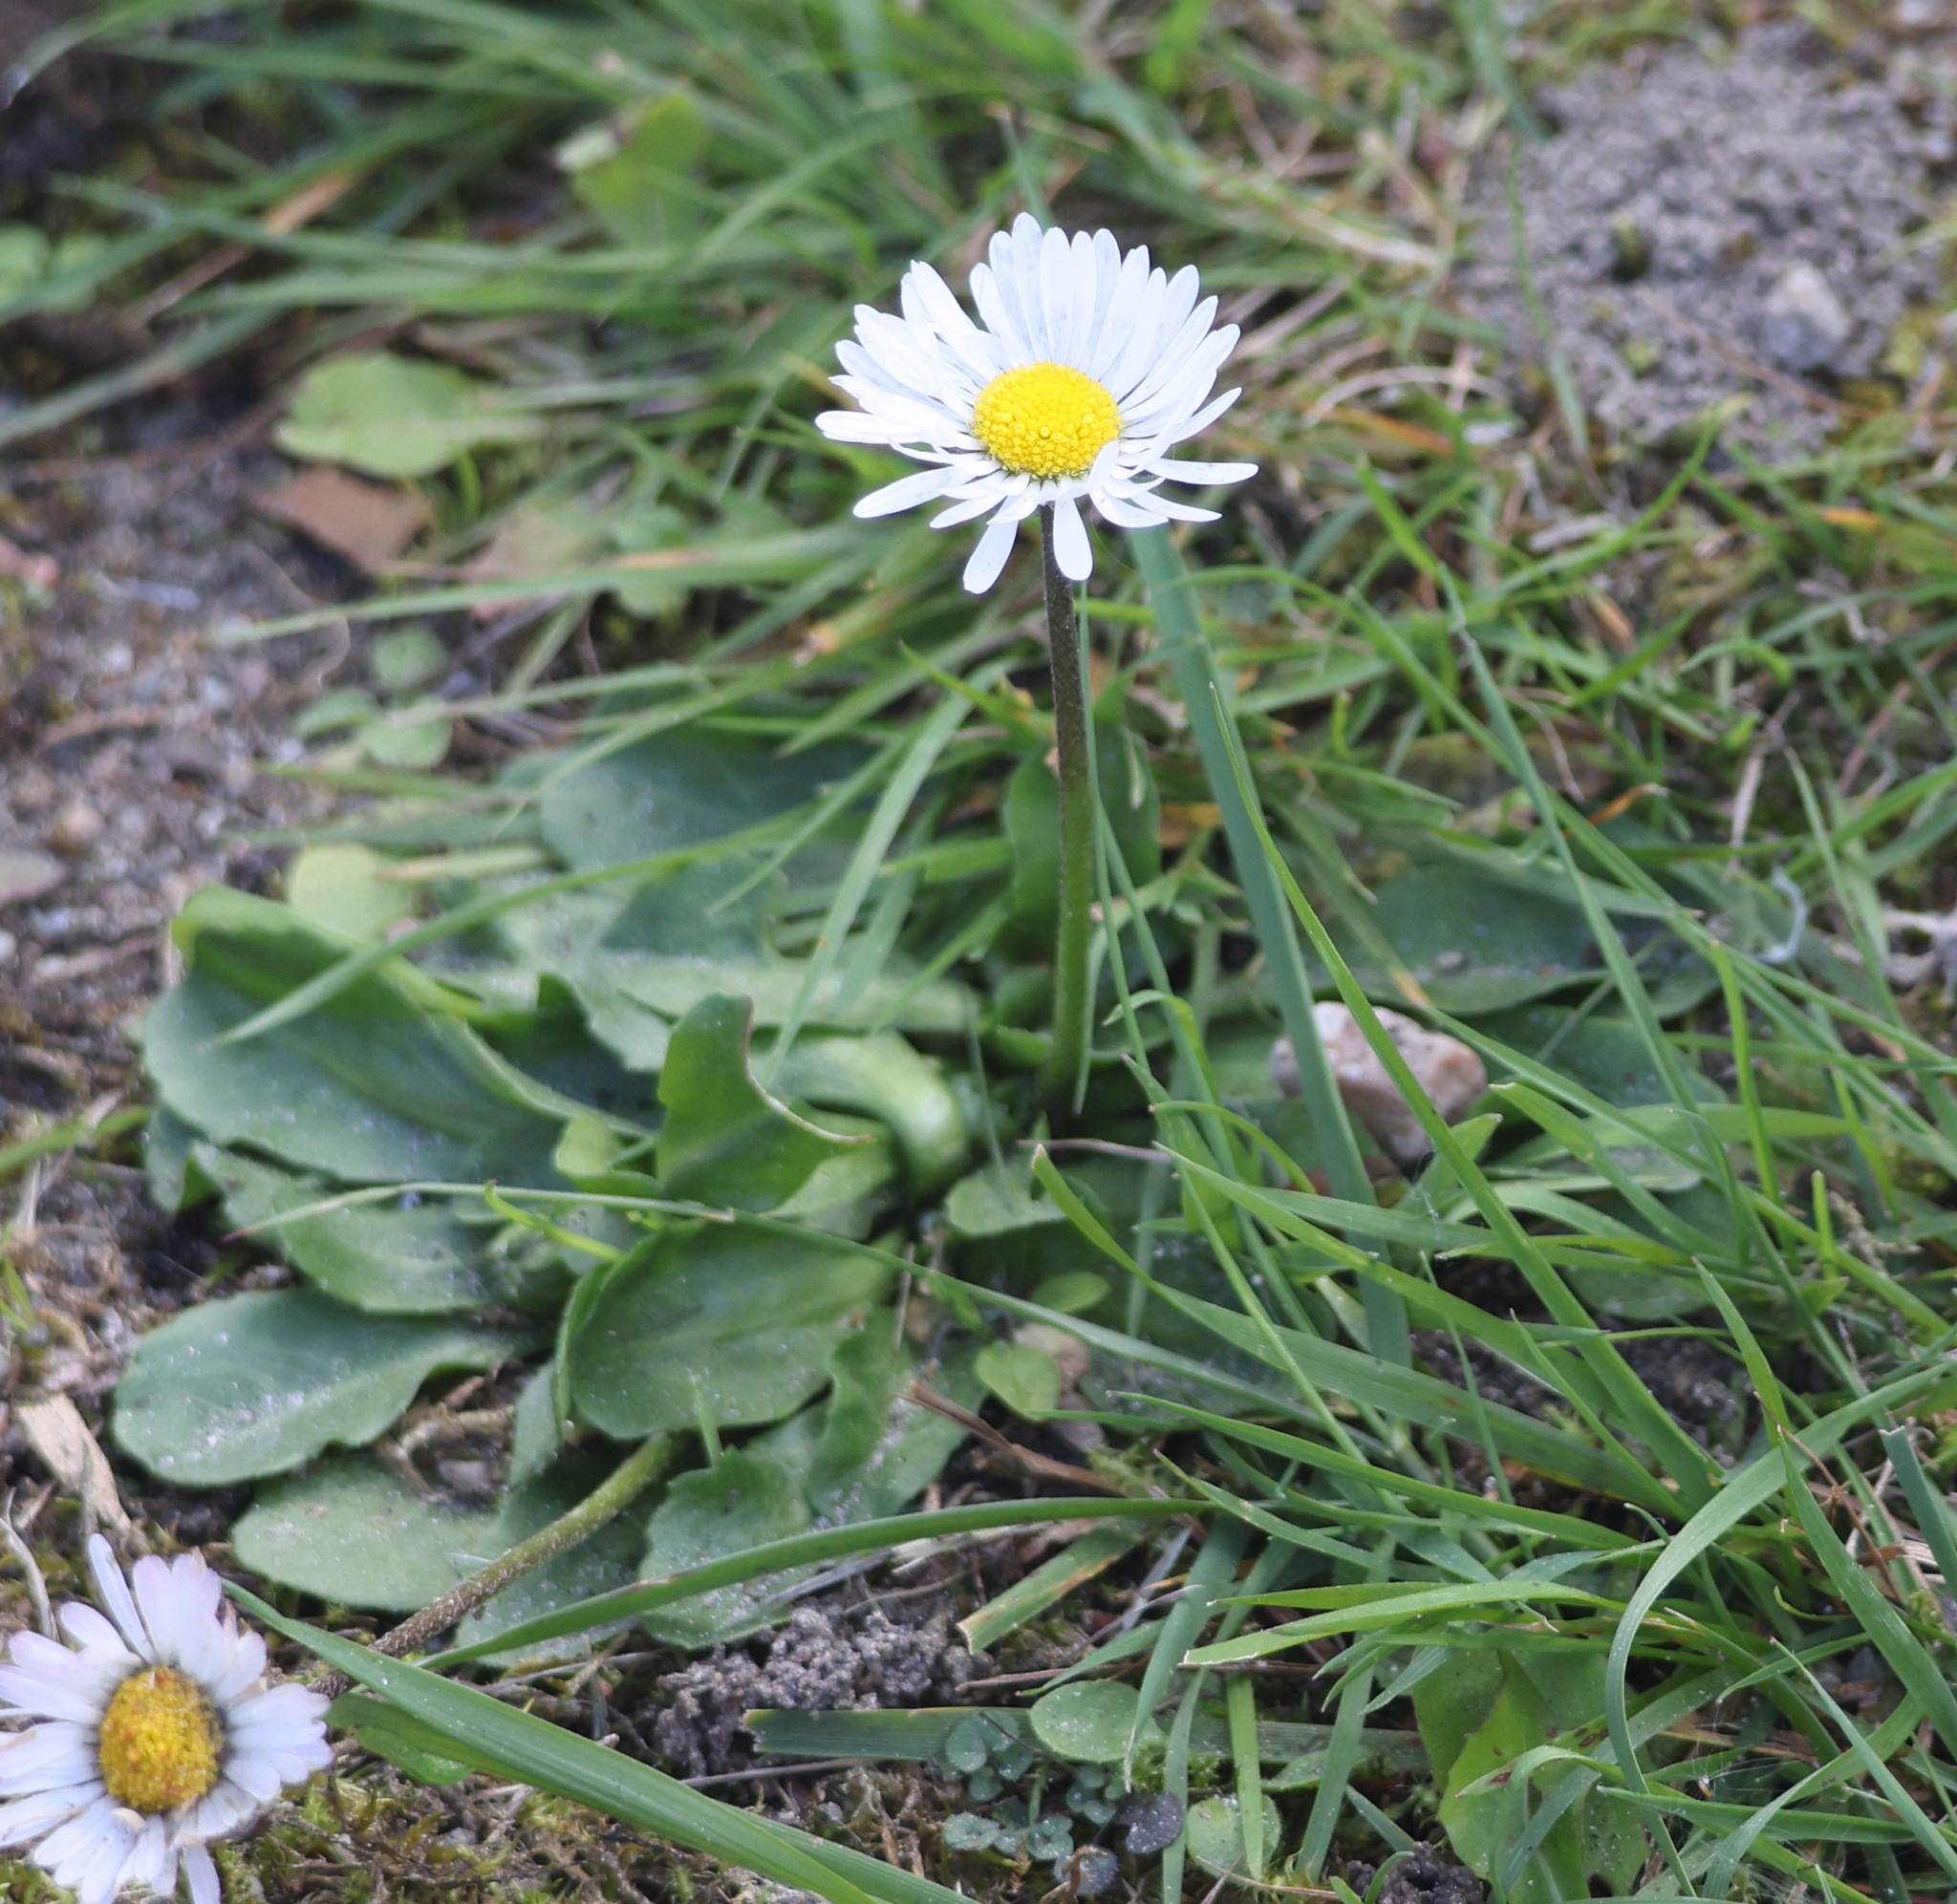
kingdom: Plantae
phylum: Tracheophyta
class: Magnoliopsida
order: Asterales
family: Asteraceae
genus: Bellis
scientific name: Bellis perennis
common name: Lawndaisy
